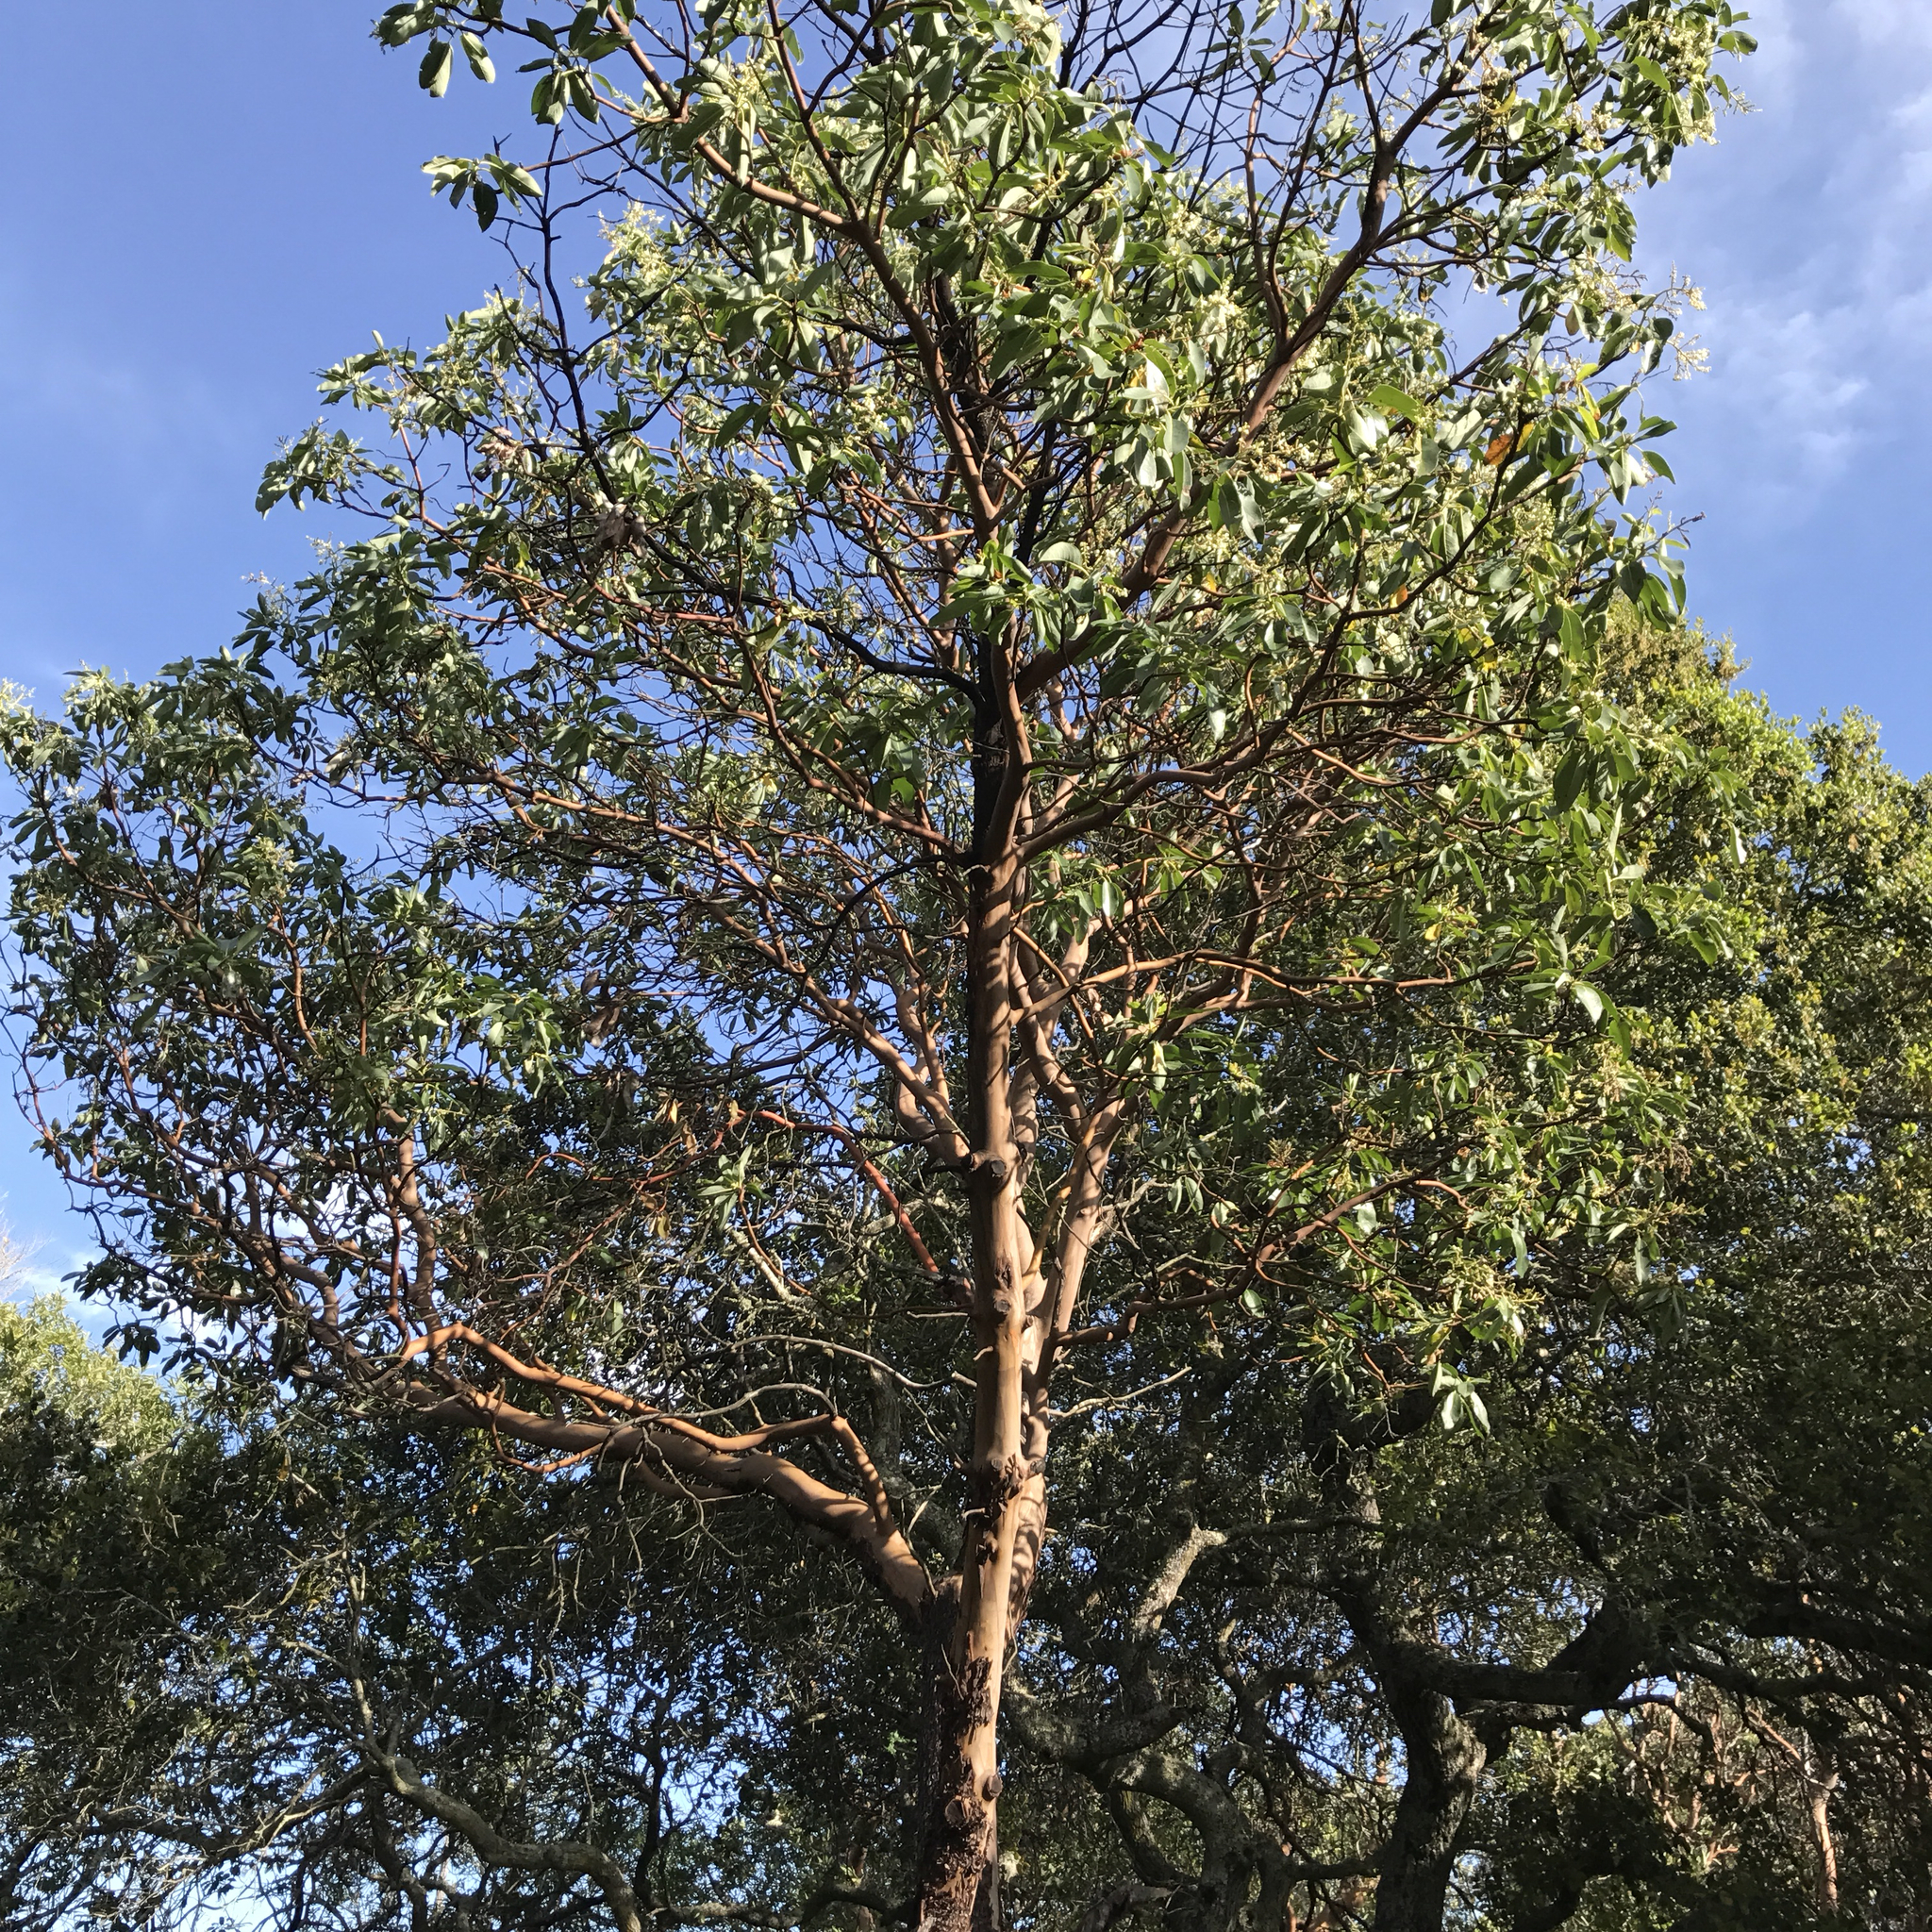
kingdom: Plantae
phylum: Tracheophyta
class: Magnoliopsida
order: Ericales
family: Ericaceae
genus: Arbutus
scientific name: Arbutus menziesii
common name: Pacific madrone
